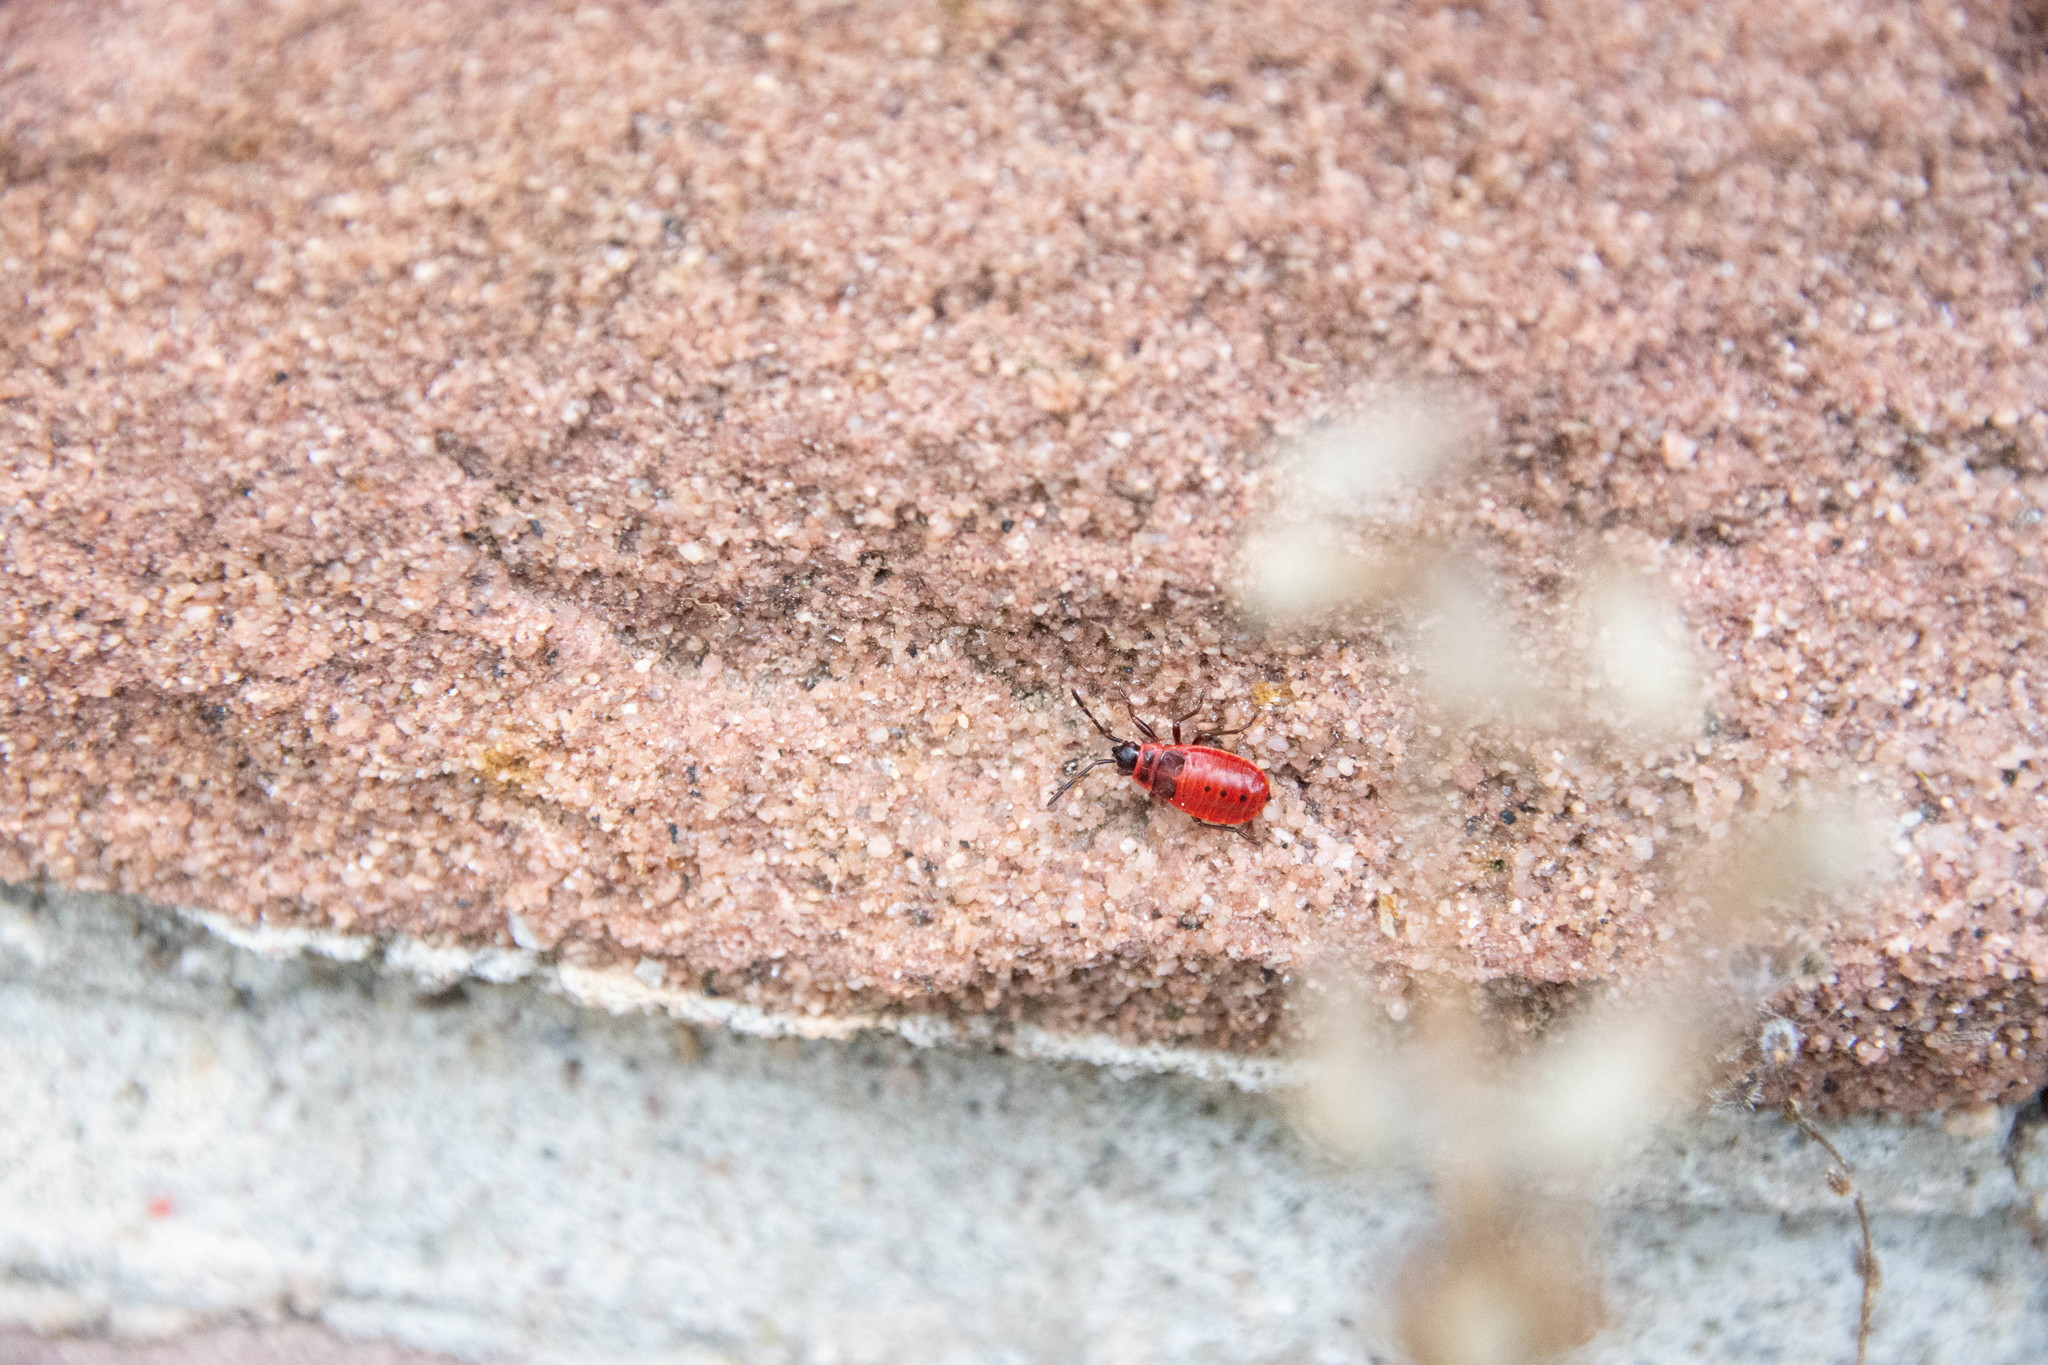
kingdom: Animalia
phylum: Arthropoda
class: Insecta
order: Hemiptera
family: Pyrrhocoridae
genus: Pyrrhocoris
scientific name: Pyrrhocoris apterus
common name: Firebug
